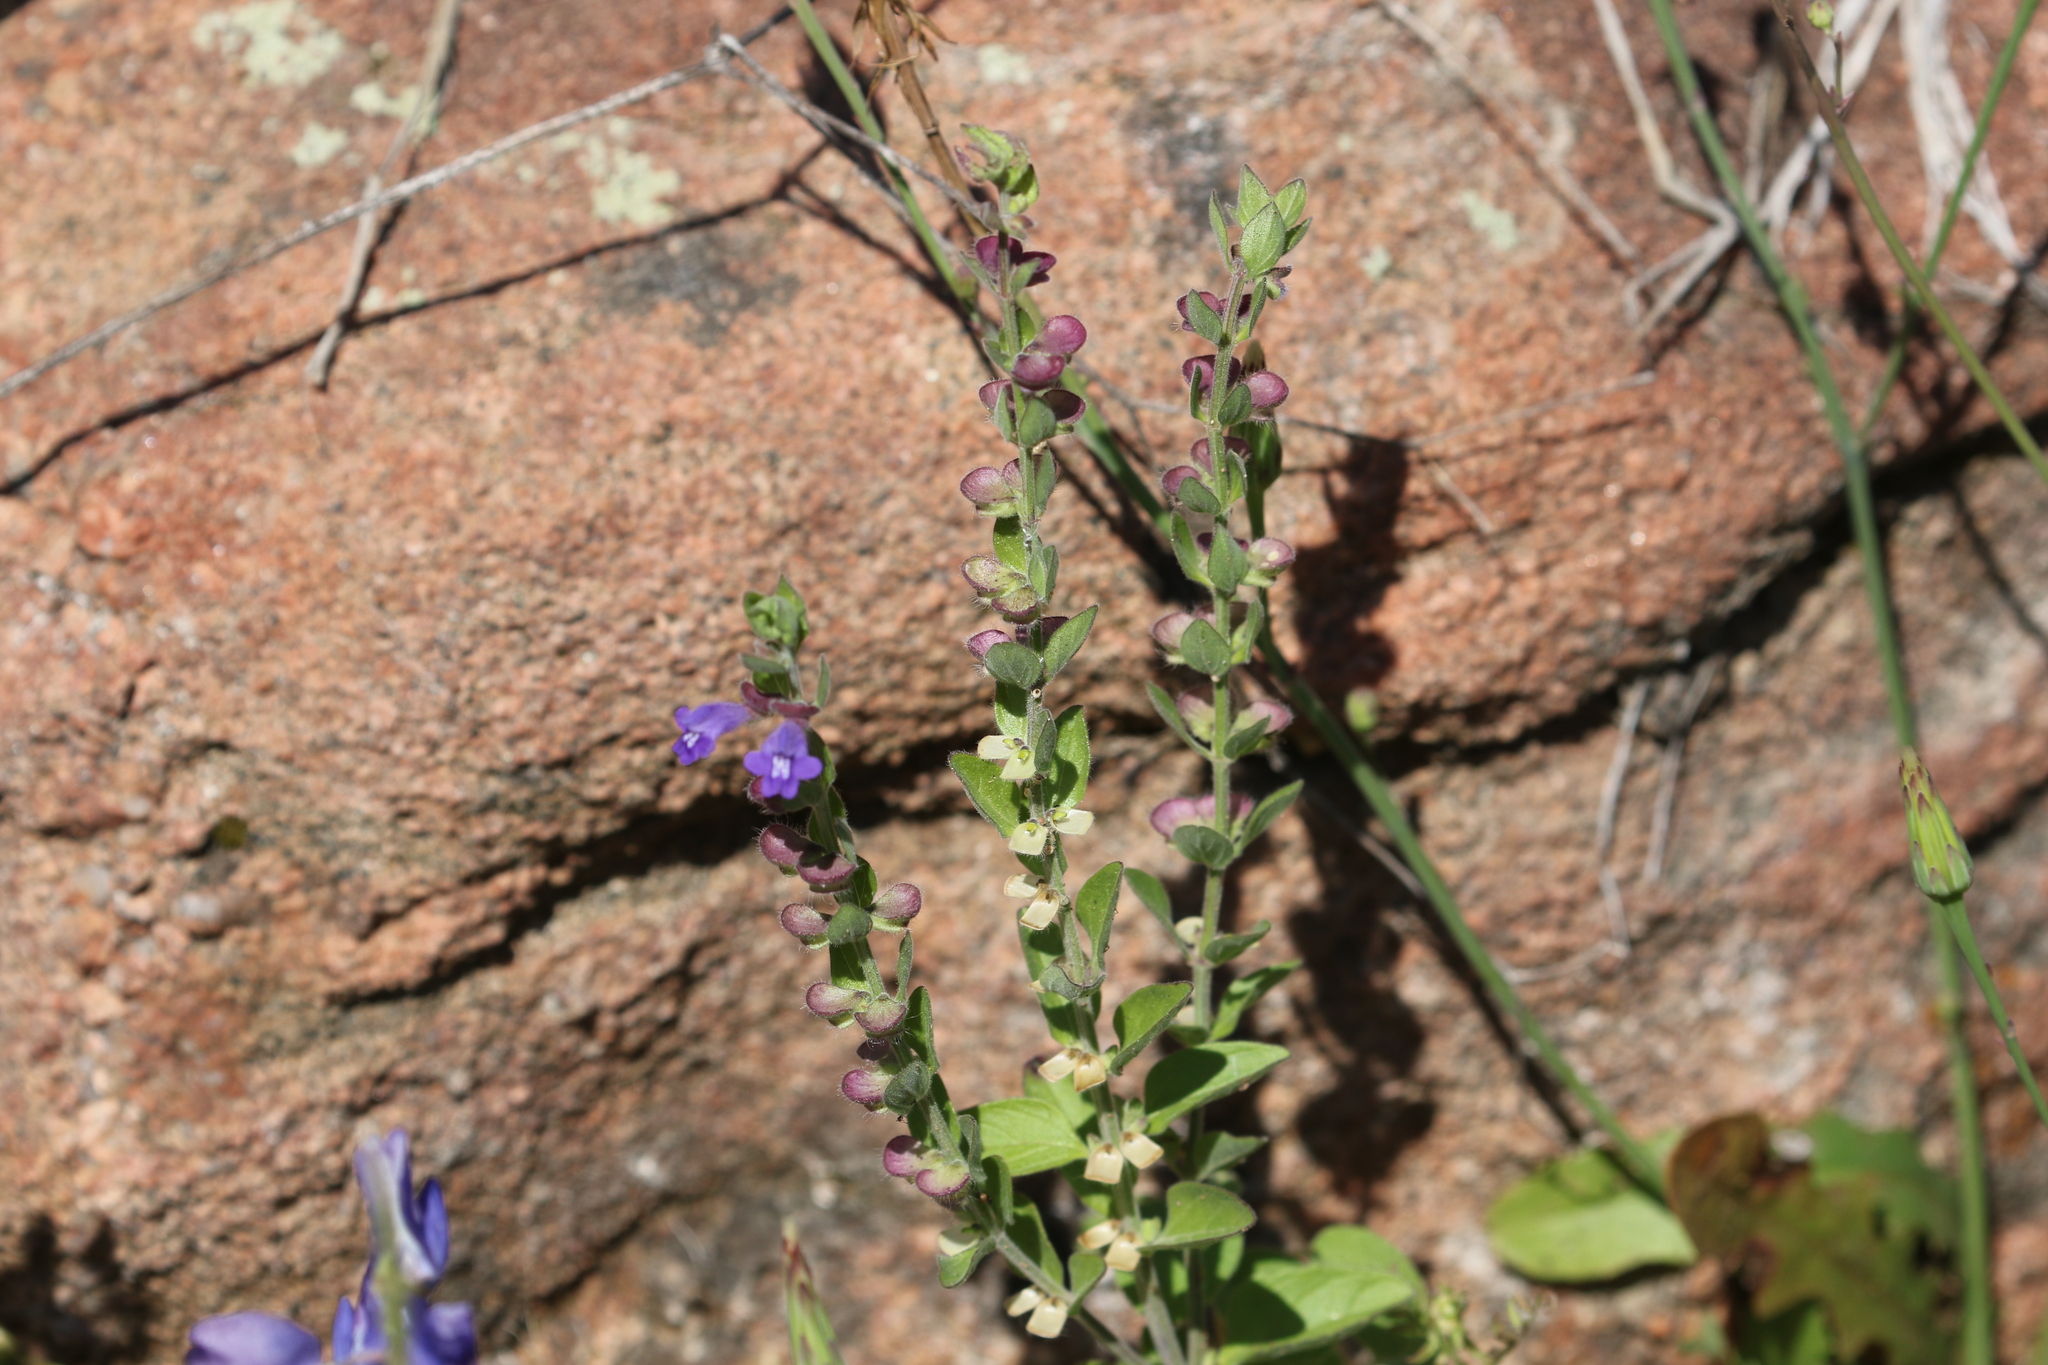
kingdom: Plantae
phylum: Tracheophyta
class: Magnoliopsida
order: Lamiales
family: Lamiaceae
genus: Scutellaria
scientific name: Scutellaria drummondii
